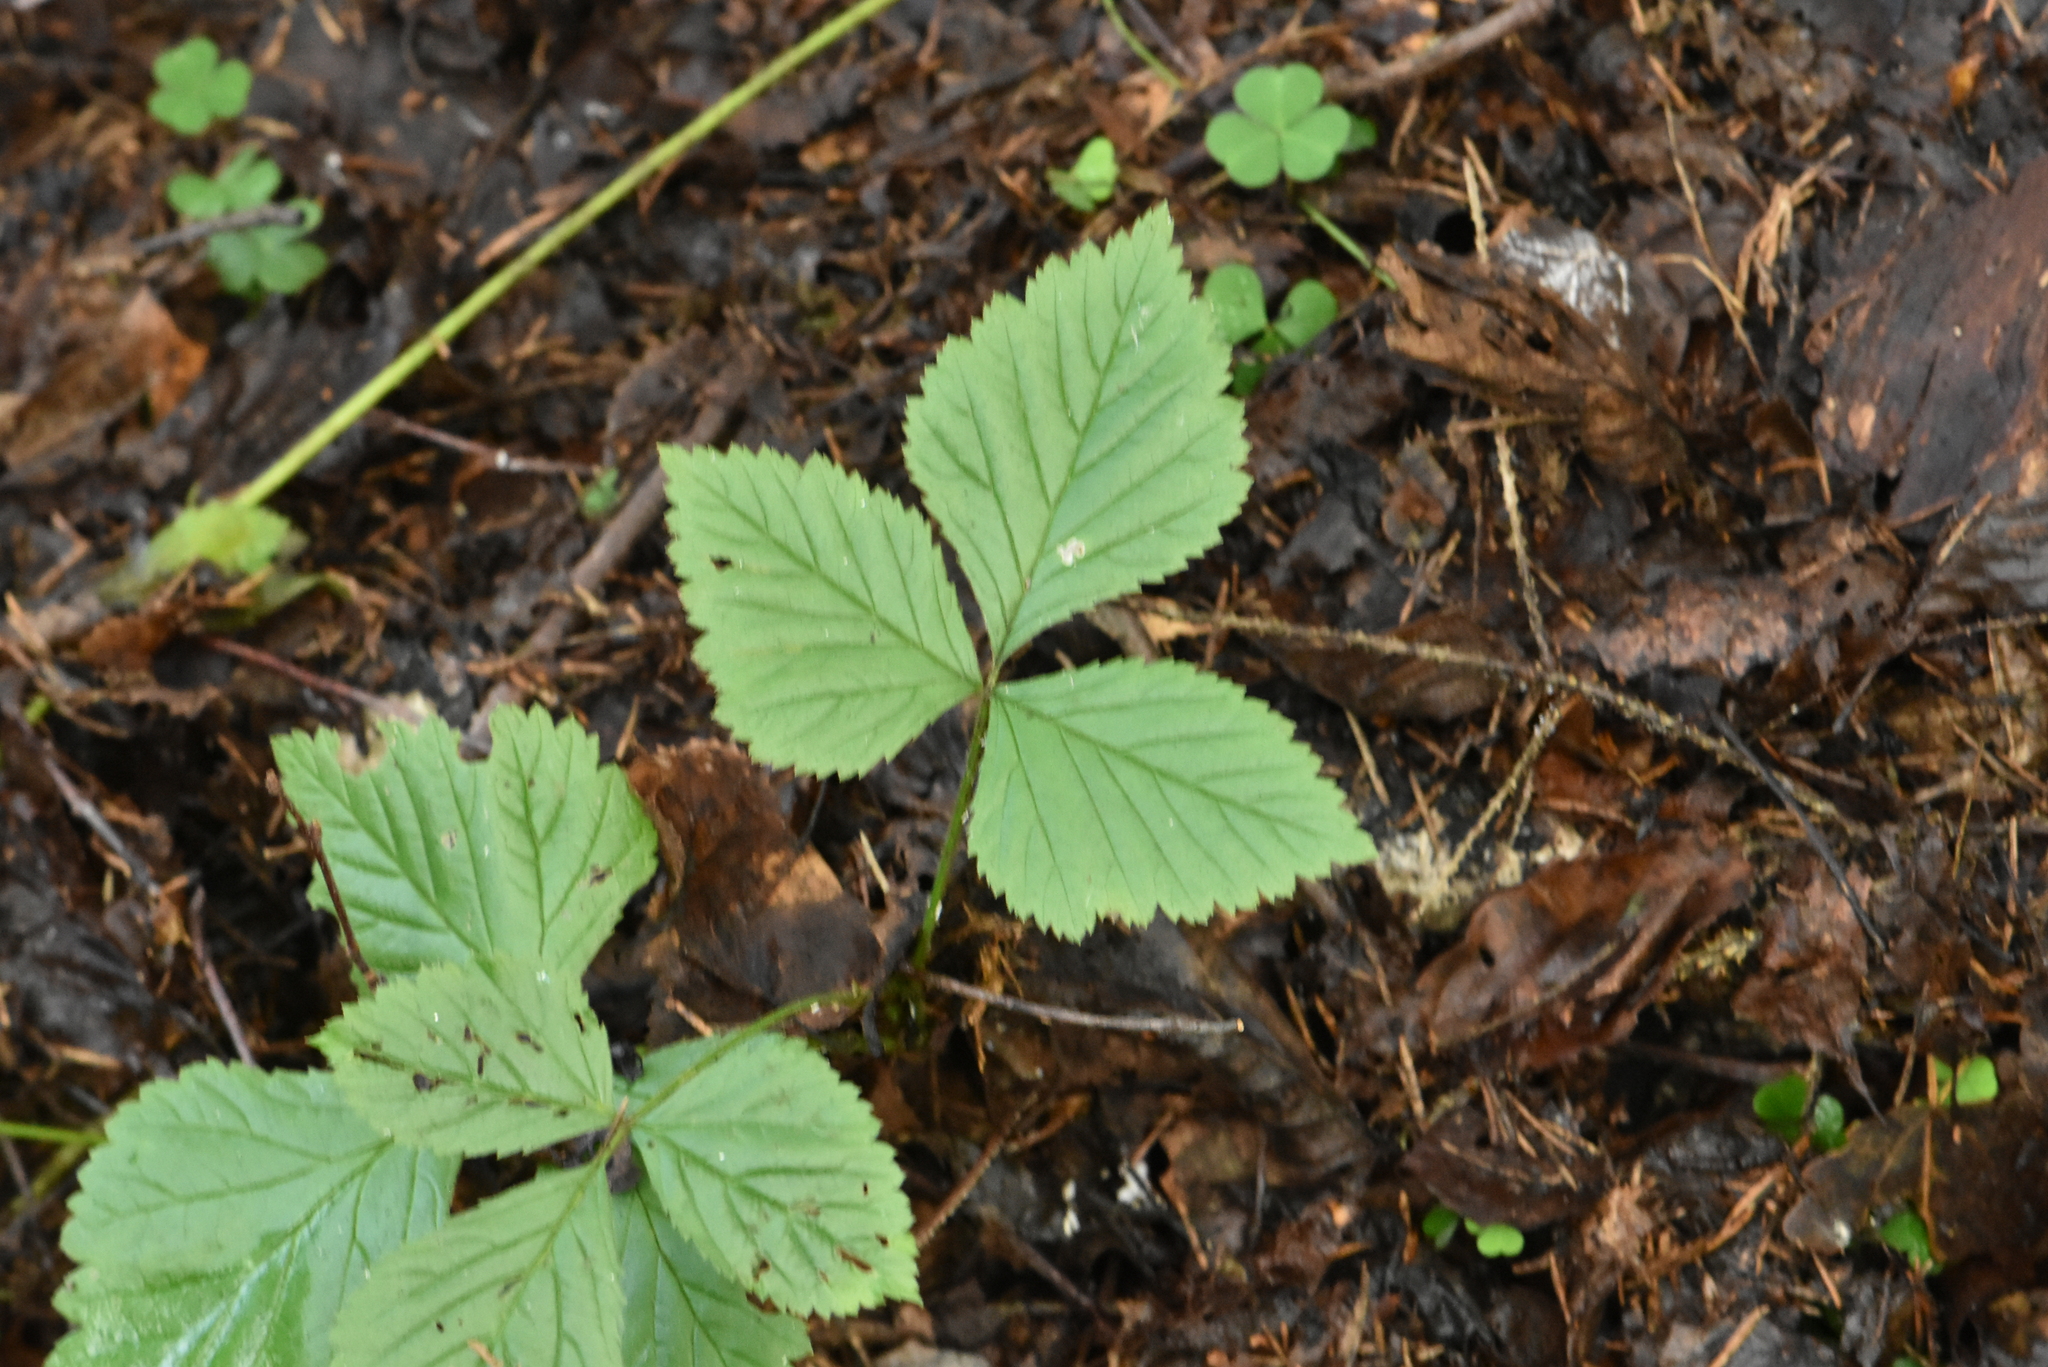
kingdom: Plantae
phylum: Tracheophyta
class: Magnoliopsida
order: Rosales
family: Rosaceae
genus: Rubus
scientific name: Rubus saxatilis
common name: Stone bramble
